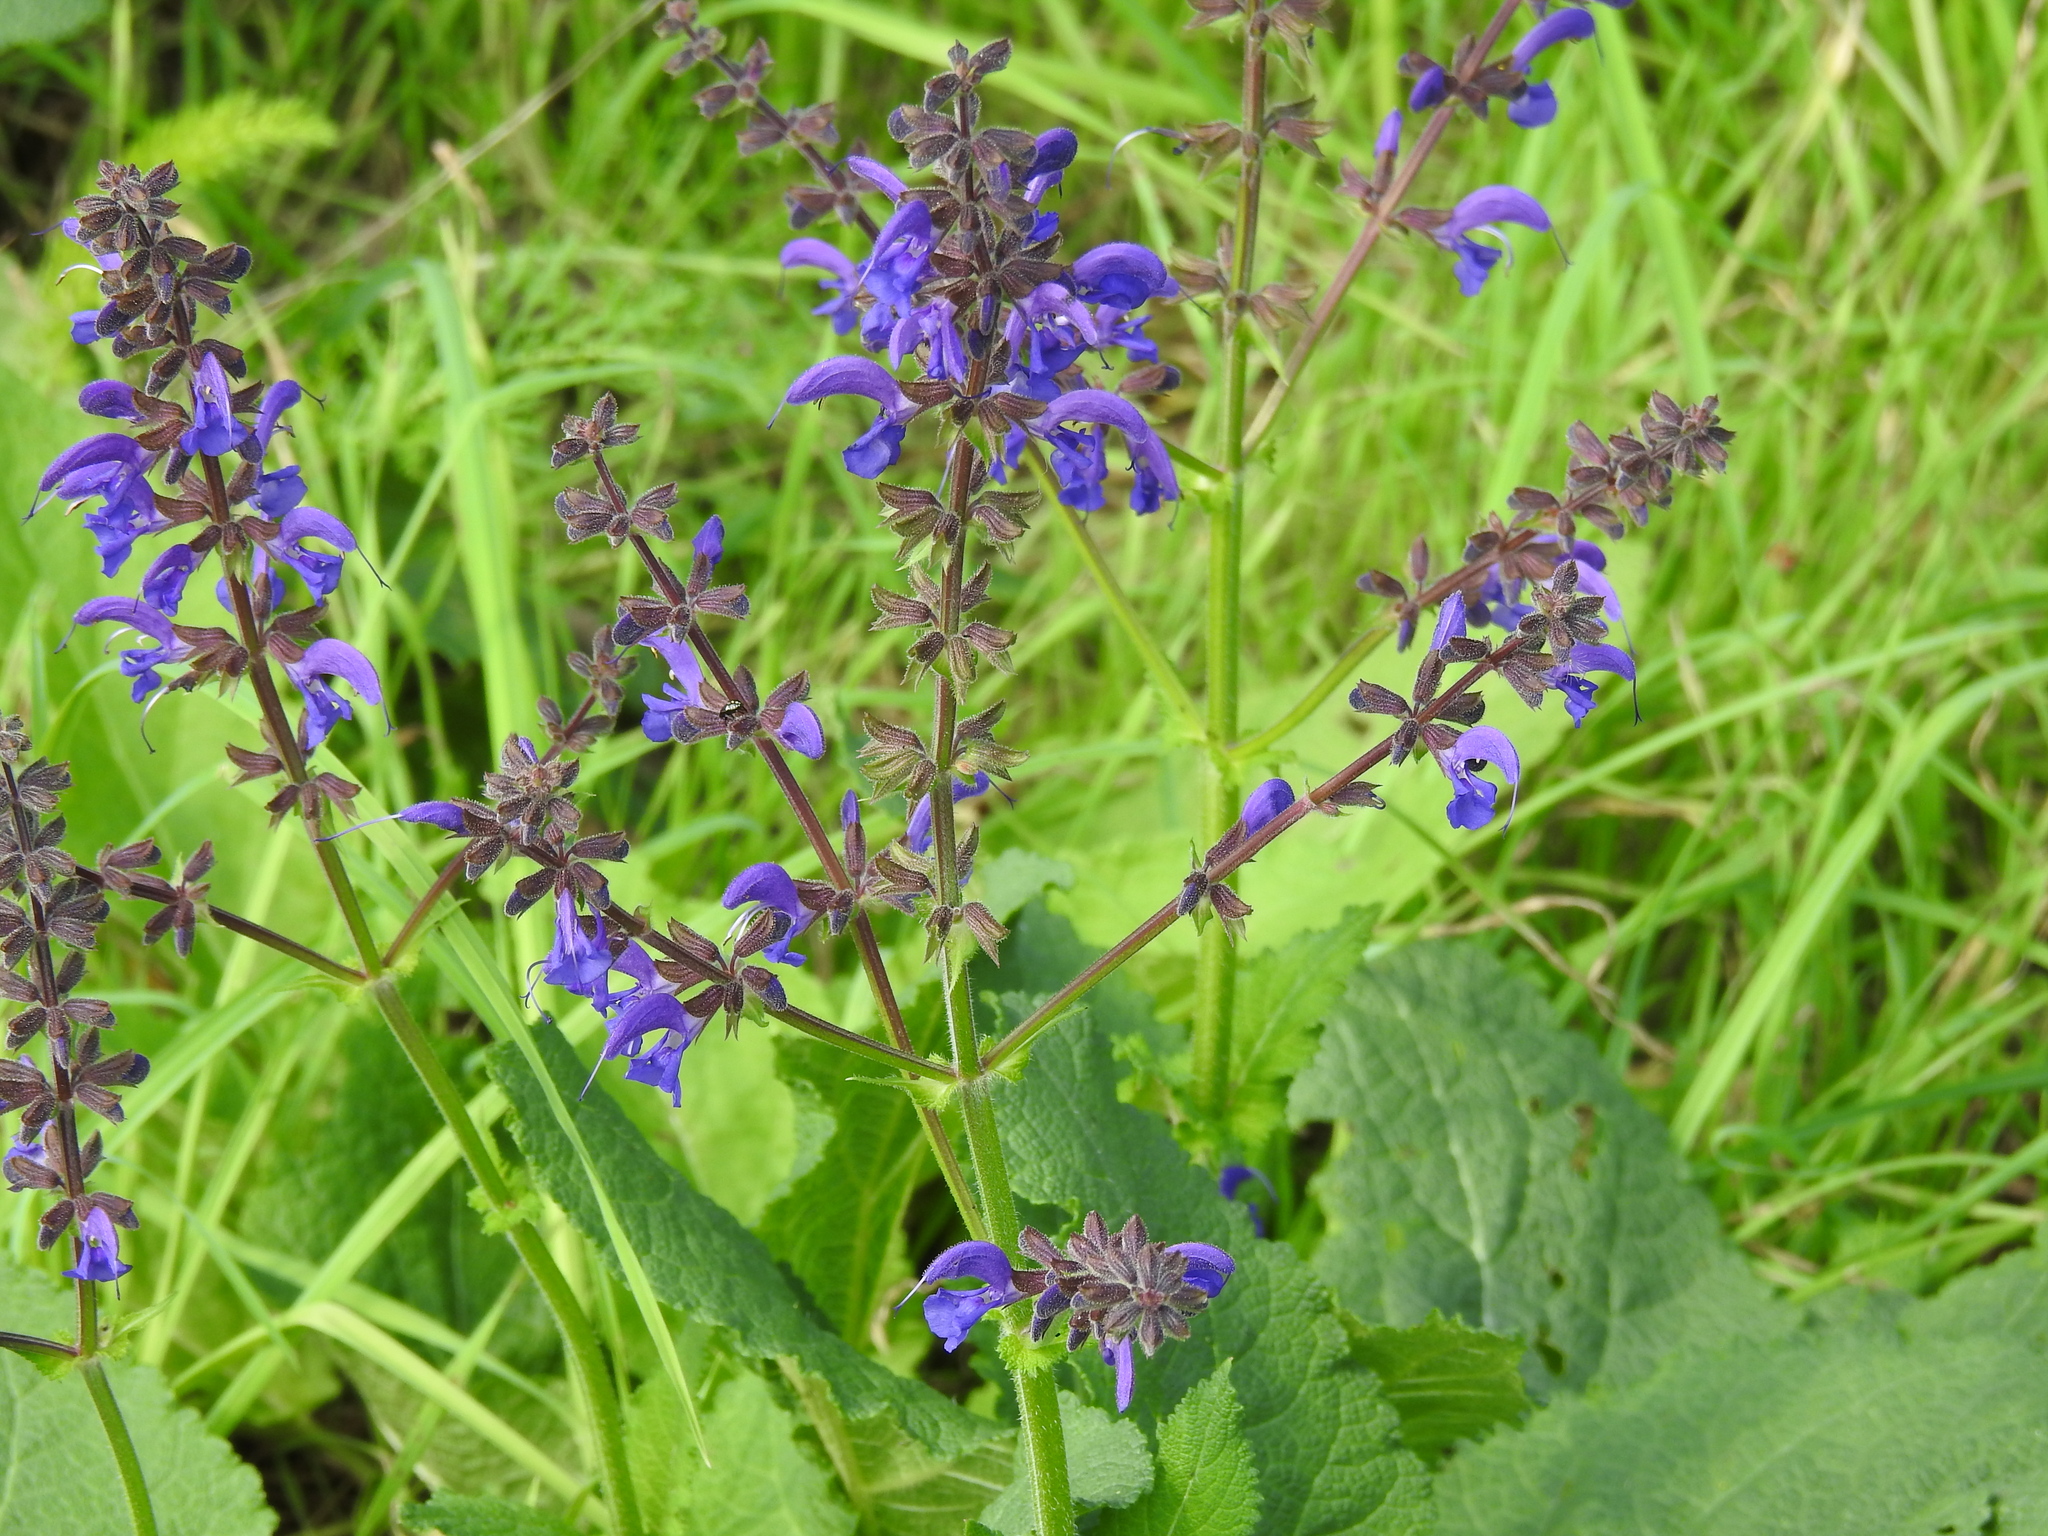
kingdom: Plantae
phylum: Tracheophyta
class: Magnoliopsida
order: Lamiales
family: Lamiaceae
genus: Salvia
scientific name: Salvia pratensis
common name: Meadow sage
